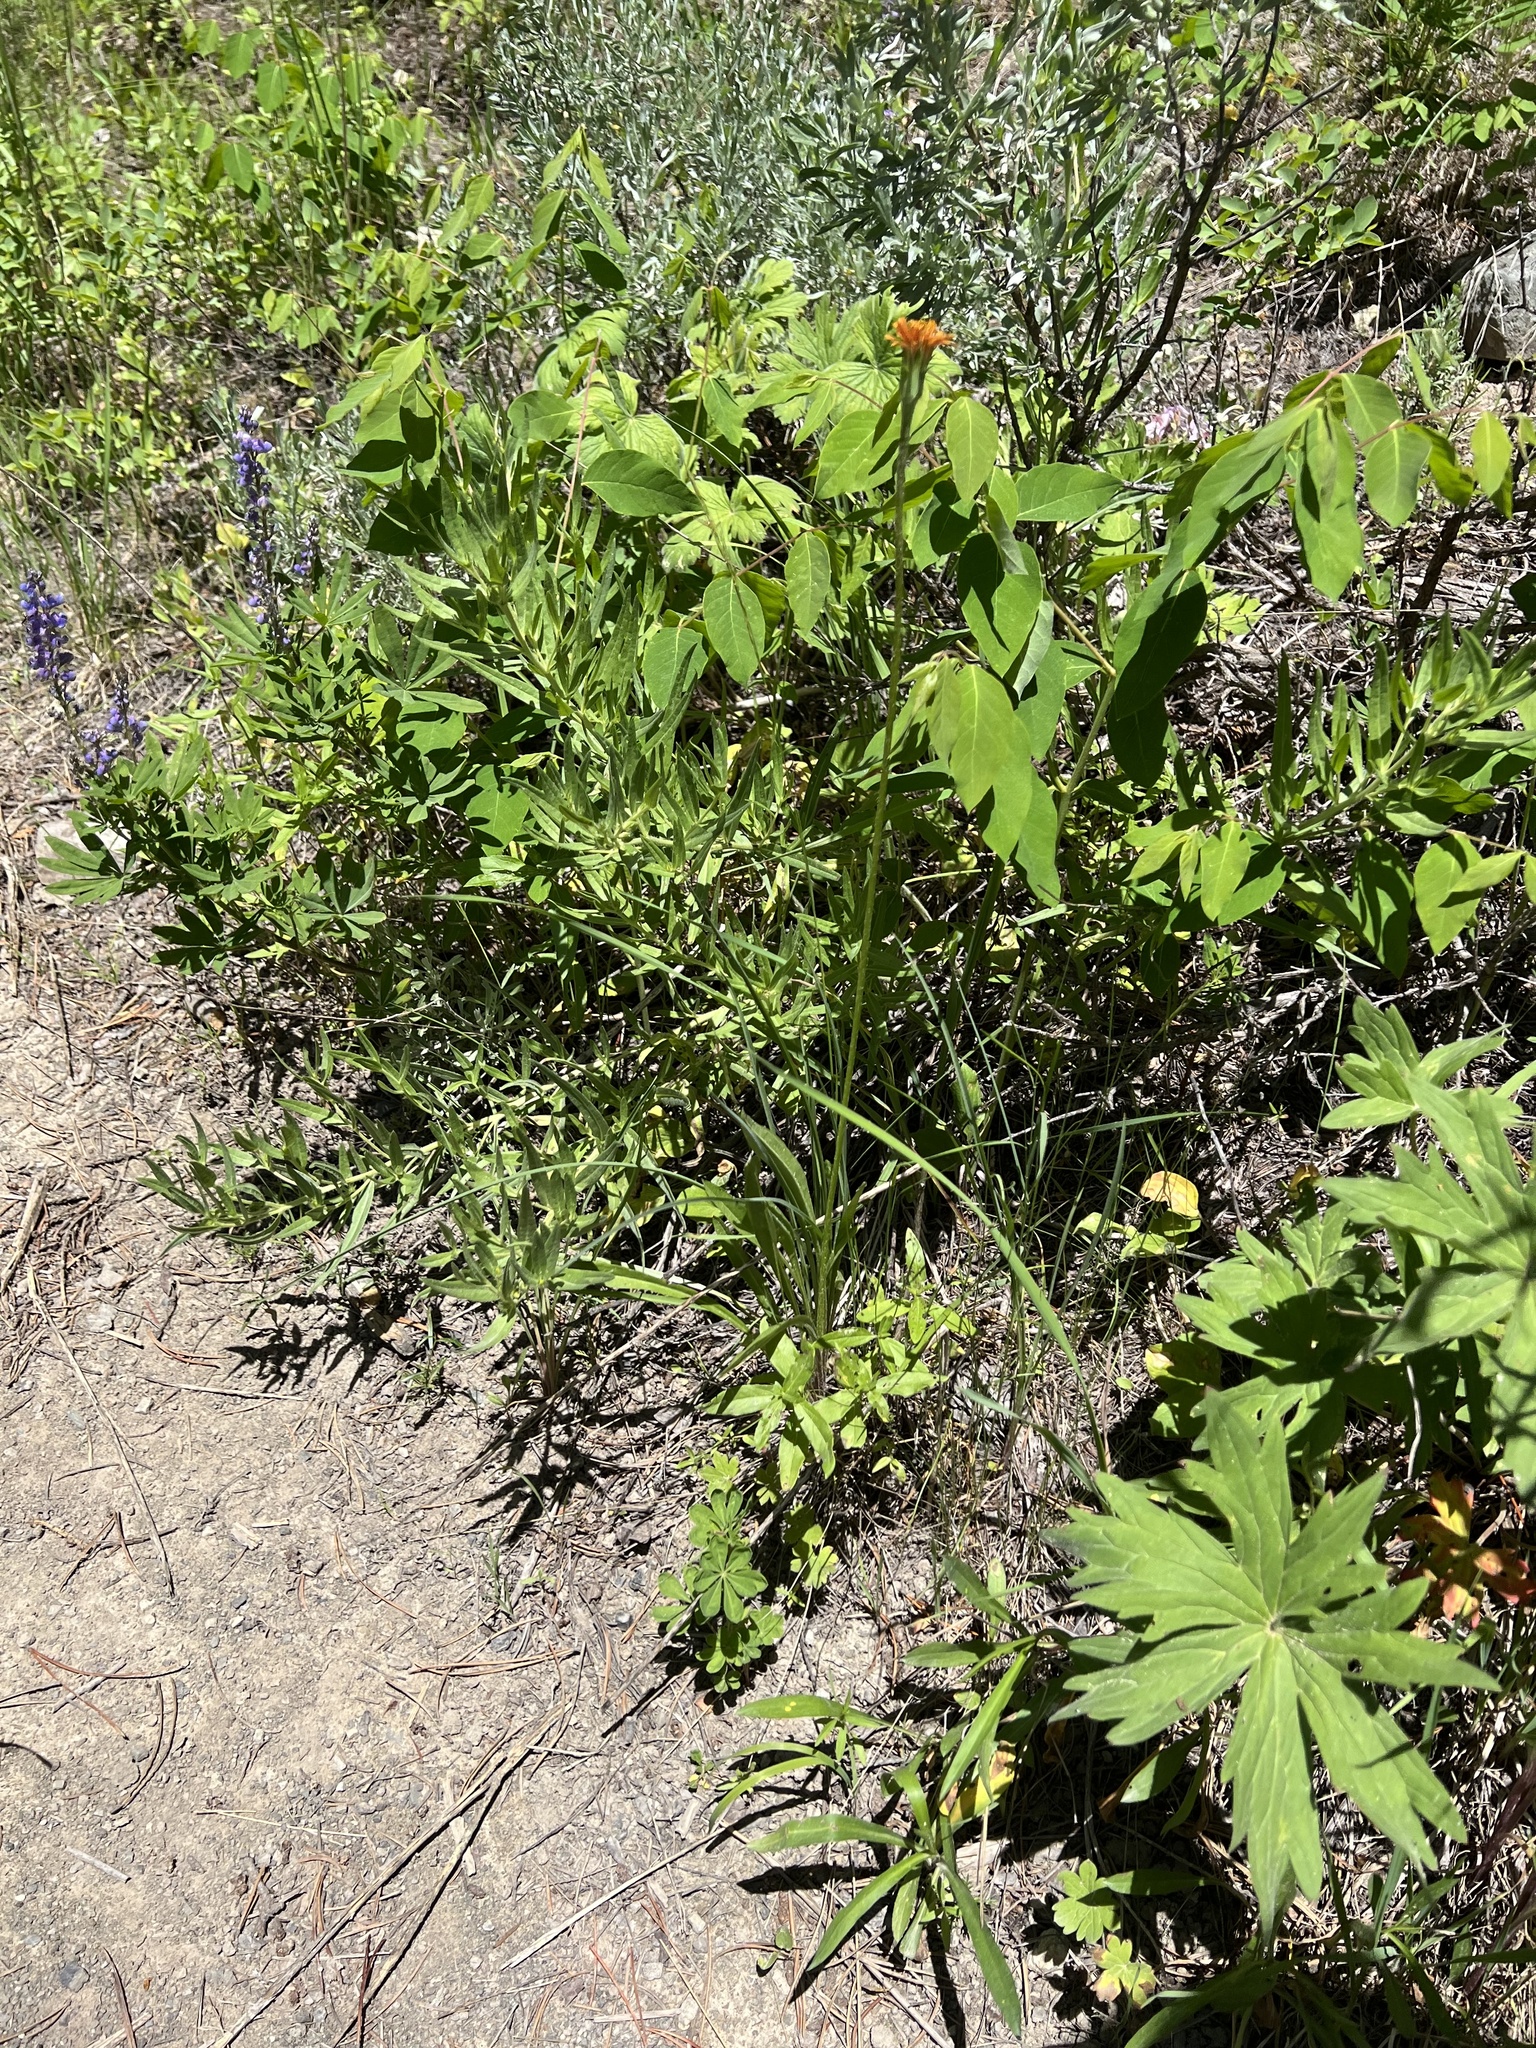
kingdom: Plantae
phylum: Tracheophyta
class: Magnoliopsida
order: Asterales
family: Asteraceae
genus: Agoseris
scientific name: Agoseris aurantiaca
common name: Mountain agoseris
